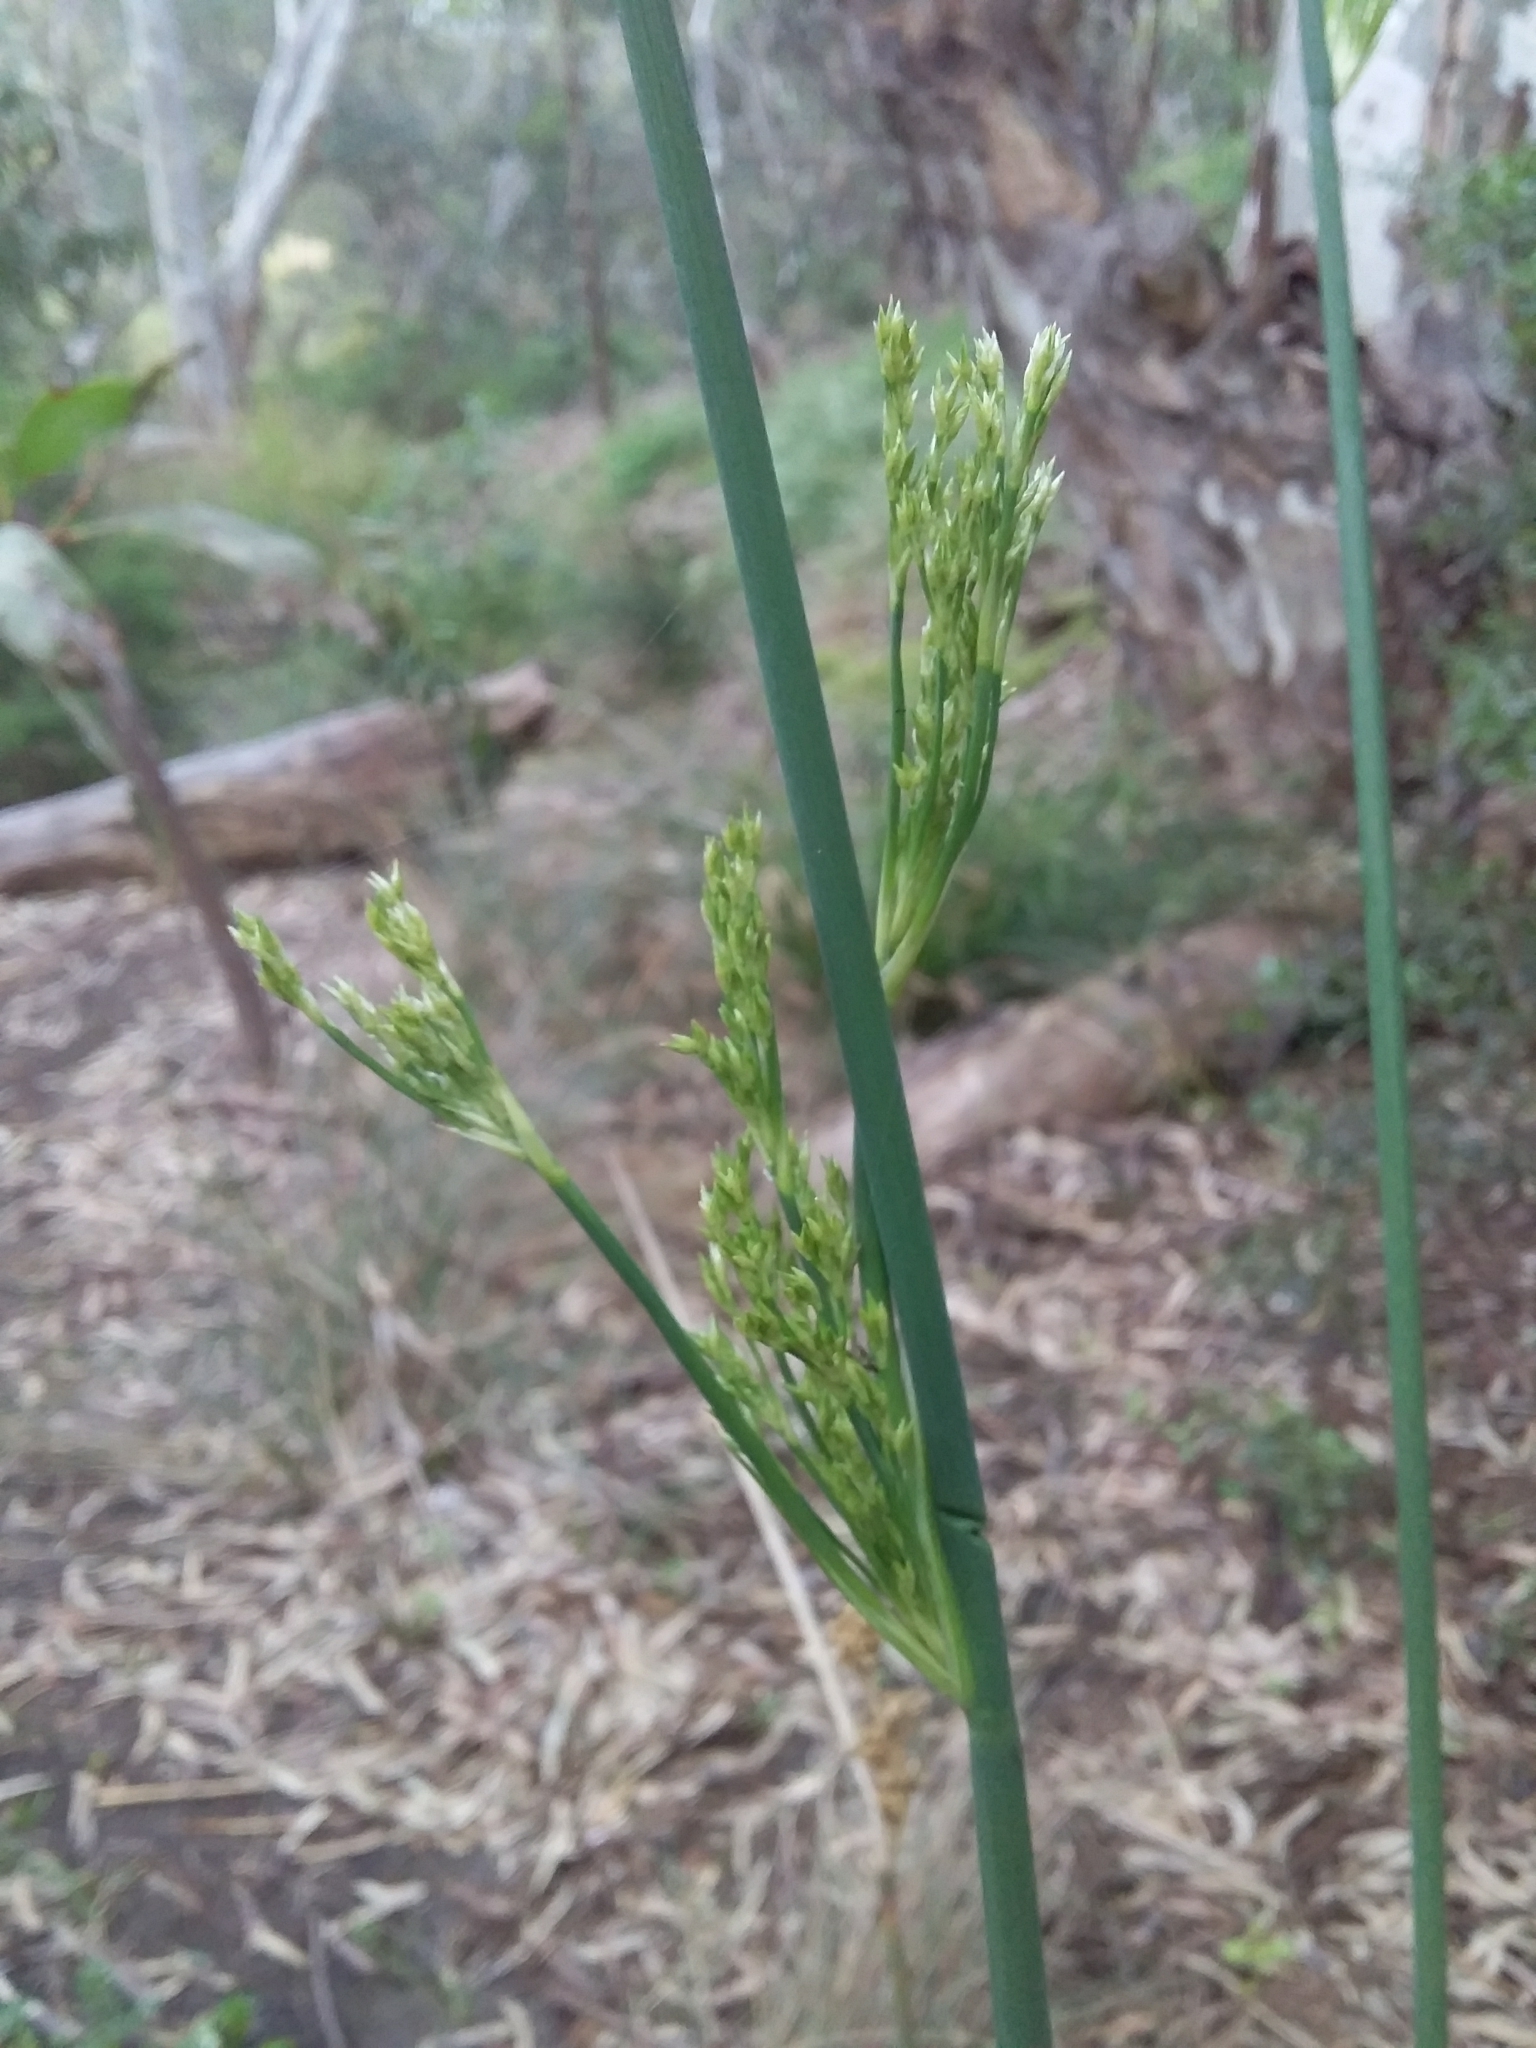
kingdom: Plantae
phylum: Tracheophyta
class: Liliopsida
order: Poales
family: Juncaceae
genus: Juncus
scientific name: Juncus pallidus
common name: Great soft-rush
